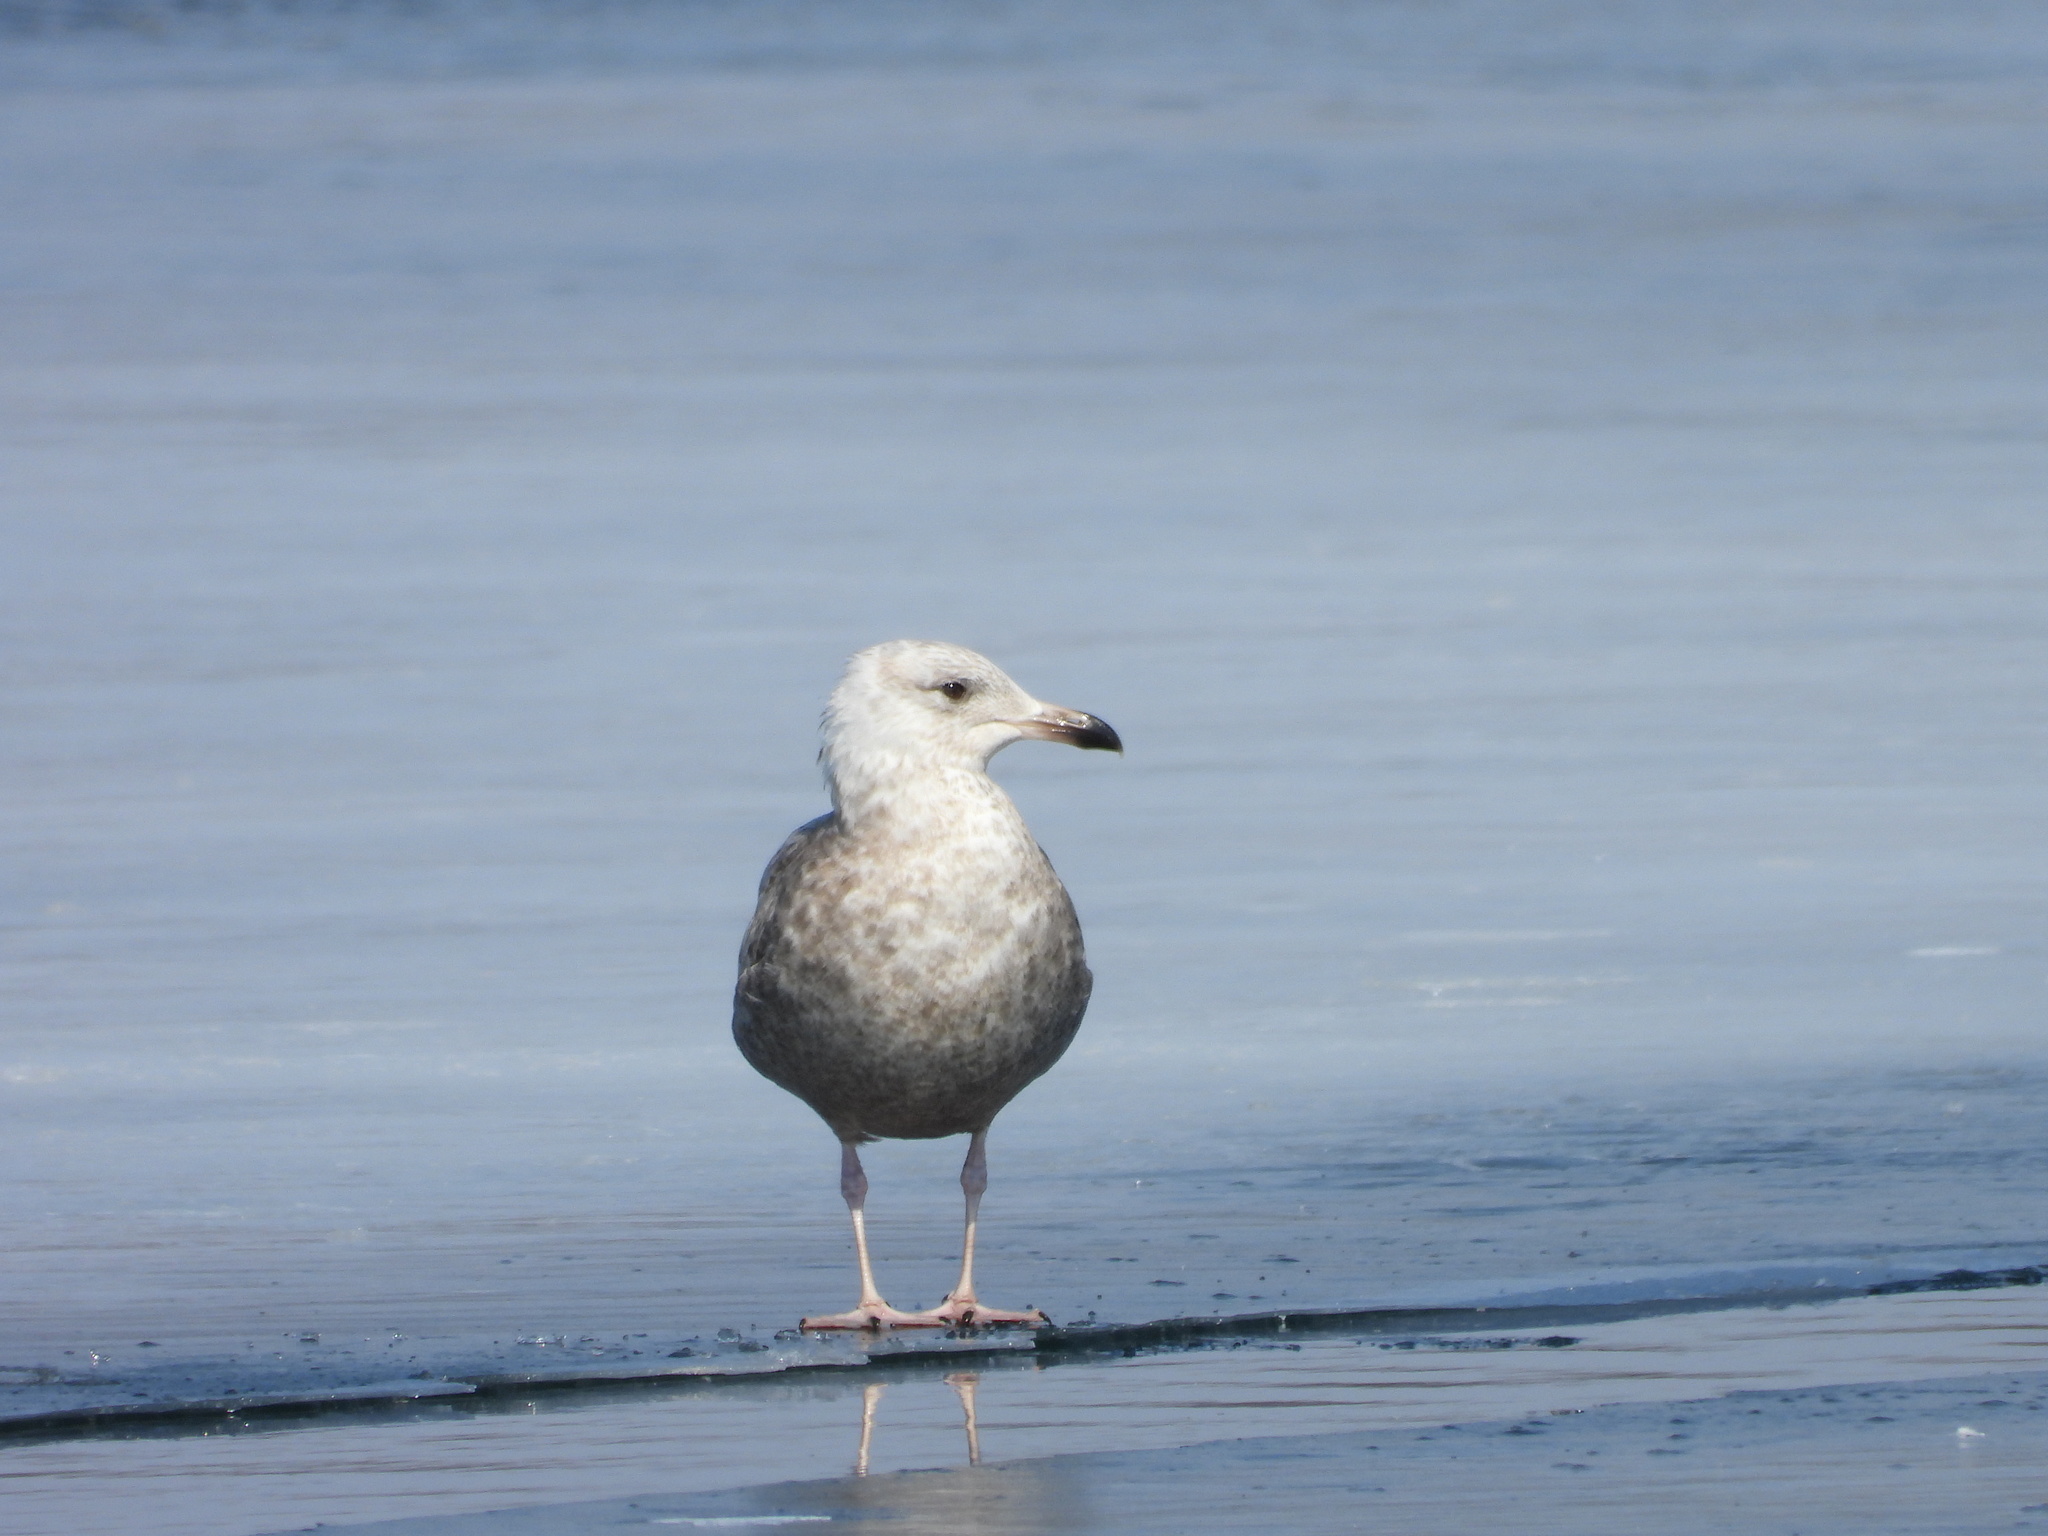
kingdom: Animalia
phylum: Chordata
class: Aves
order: Charadriiformes
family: Laridae
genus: Larus
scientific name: Larus argentatus
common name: Herring gull
